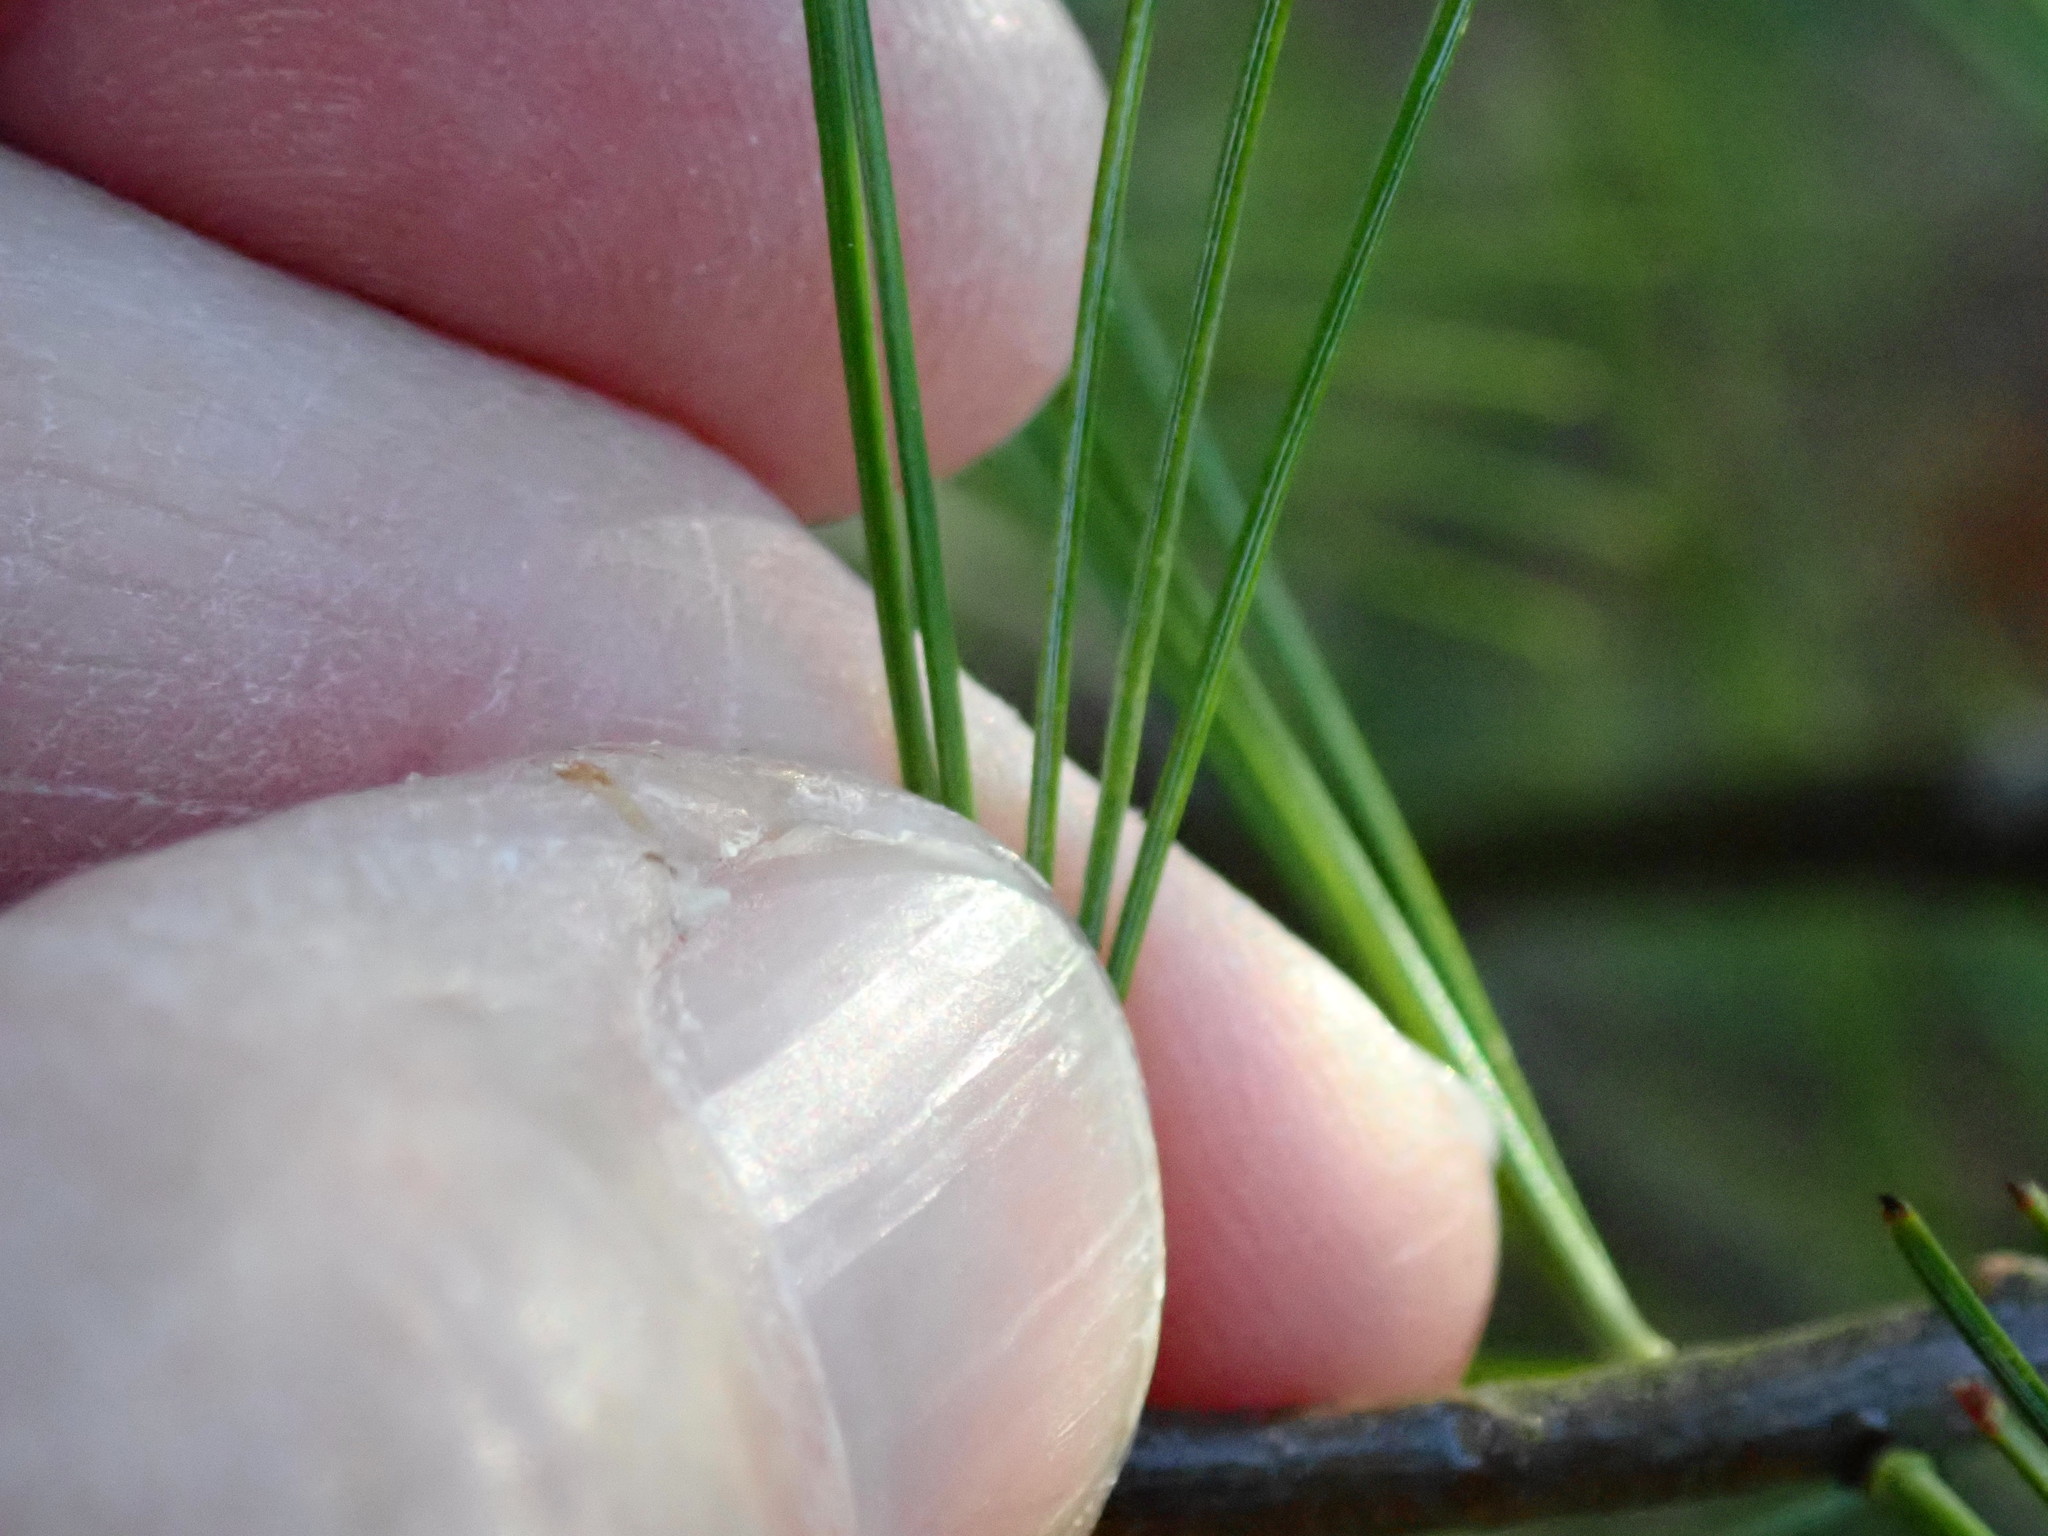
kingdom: Plantae
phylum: Tracheophyta
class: Pinopsida
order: Pinales
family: Pinaceae
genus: Pinus
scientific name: Pinus strobus
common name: Weymouth pine
